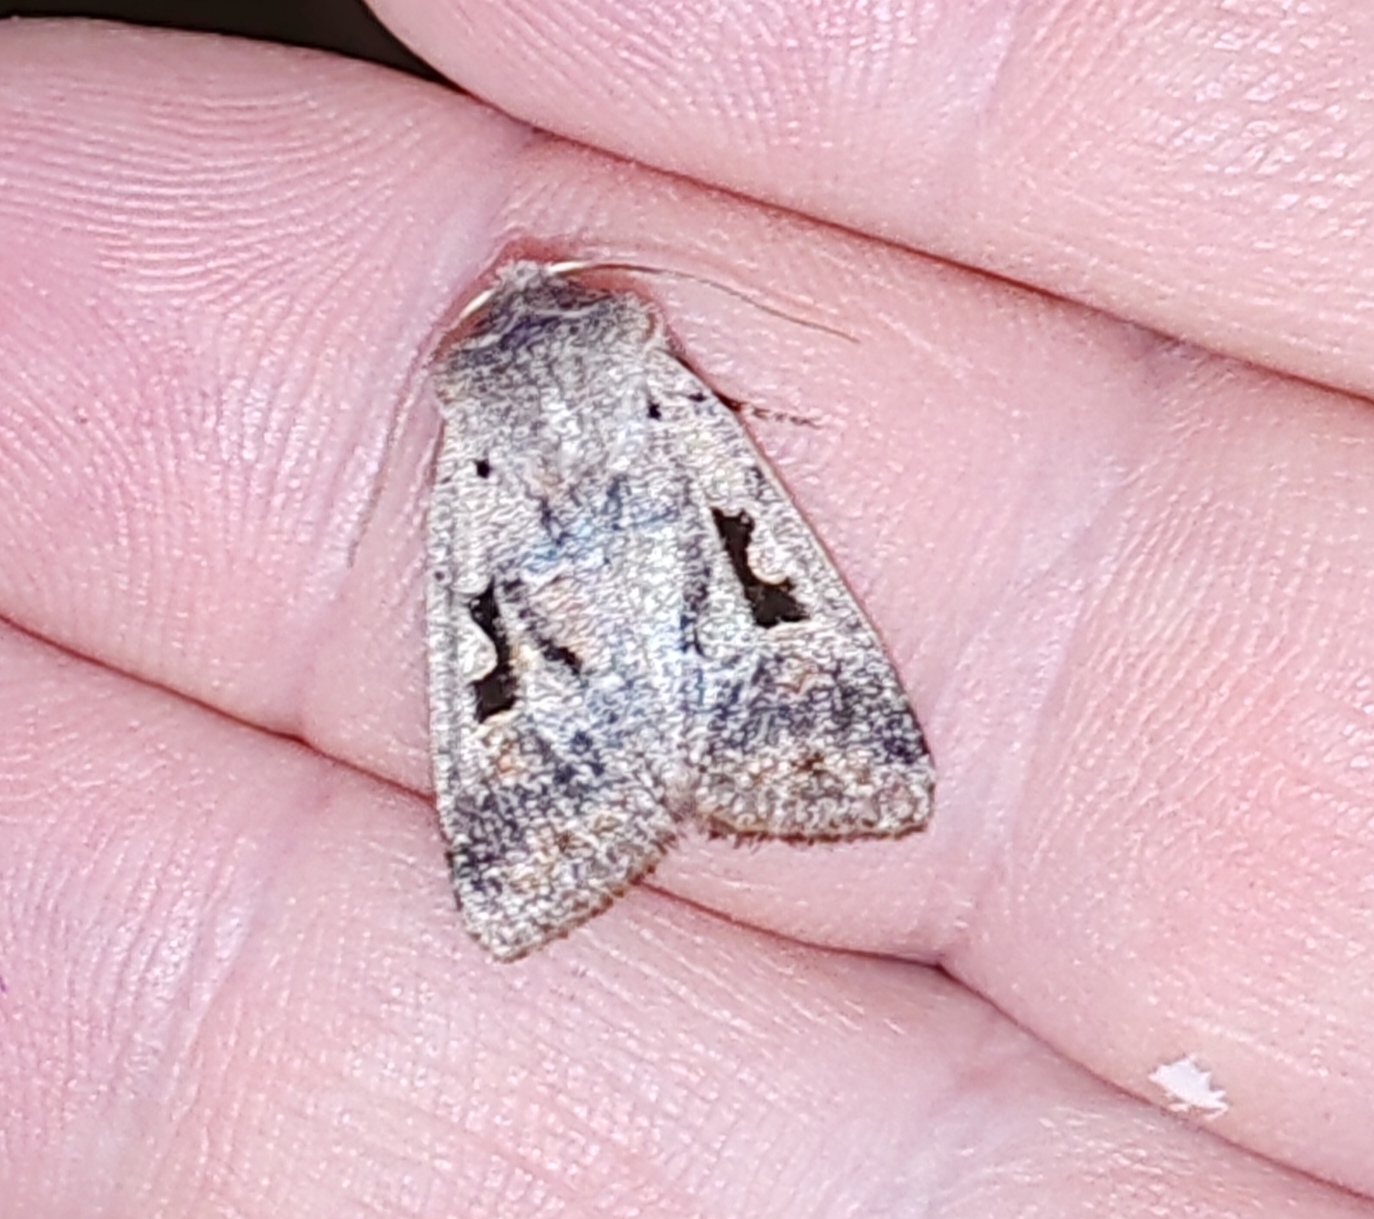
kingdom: Animalia
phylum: Arthropoda
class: Insecta
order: Lepidoptera
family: Noctuidae
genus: Orthosia
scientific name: Orthosia gothica
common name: Hebrew character
